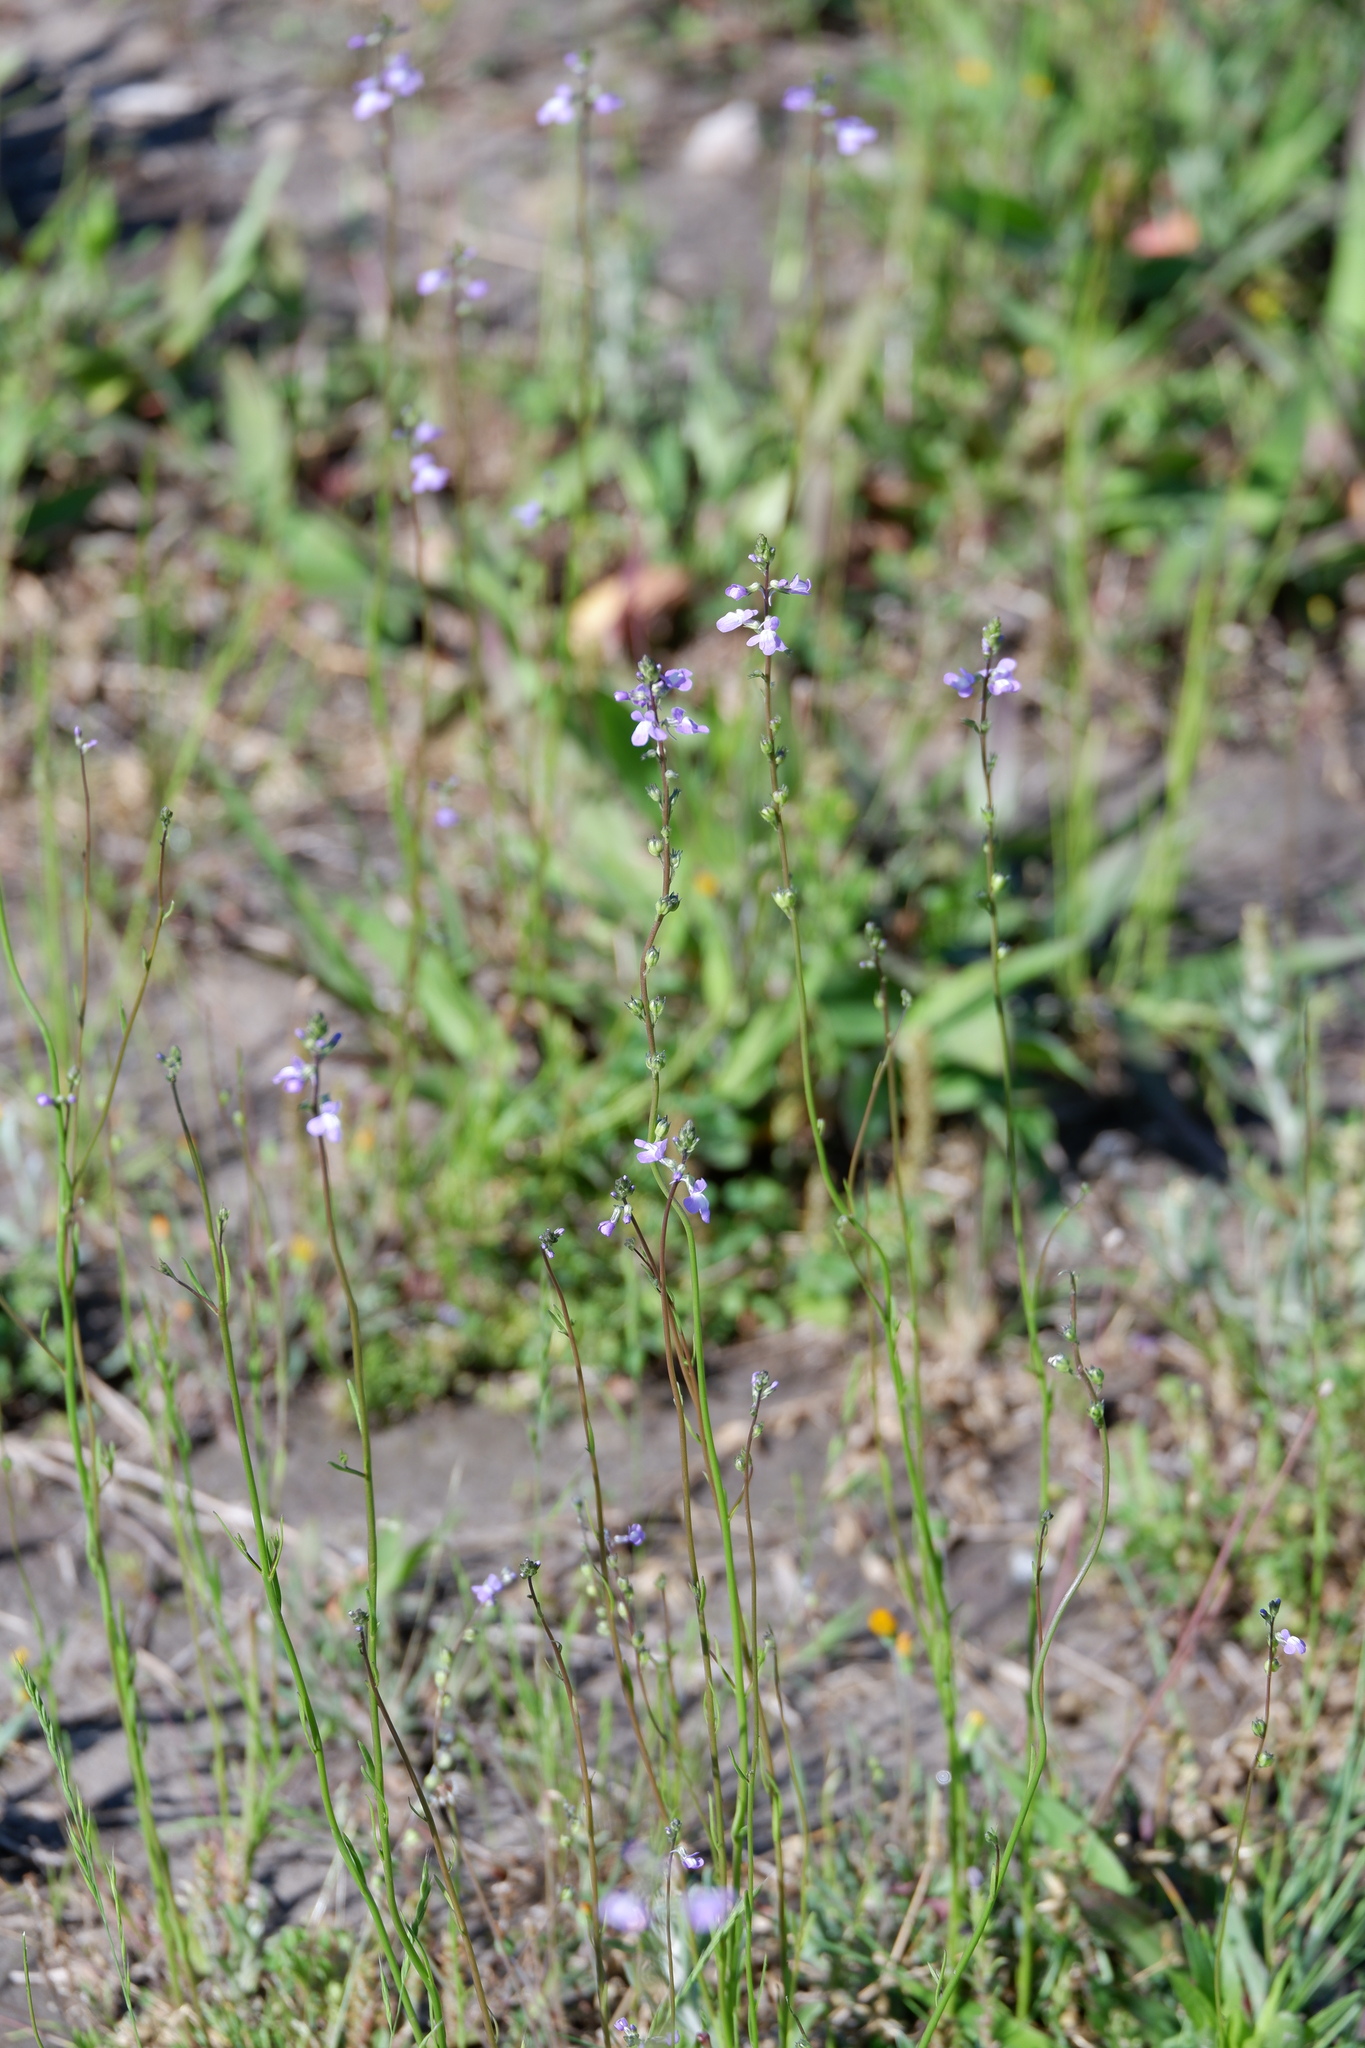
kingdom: Plantae
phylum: Tracheophyta
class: Magnoliopsida
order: Lamiales
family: Plantaginaceae
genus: Nuttallanthus
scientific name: Nuttallanthus canadensis
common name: Blue toadflax
